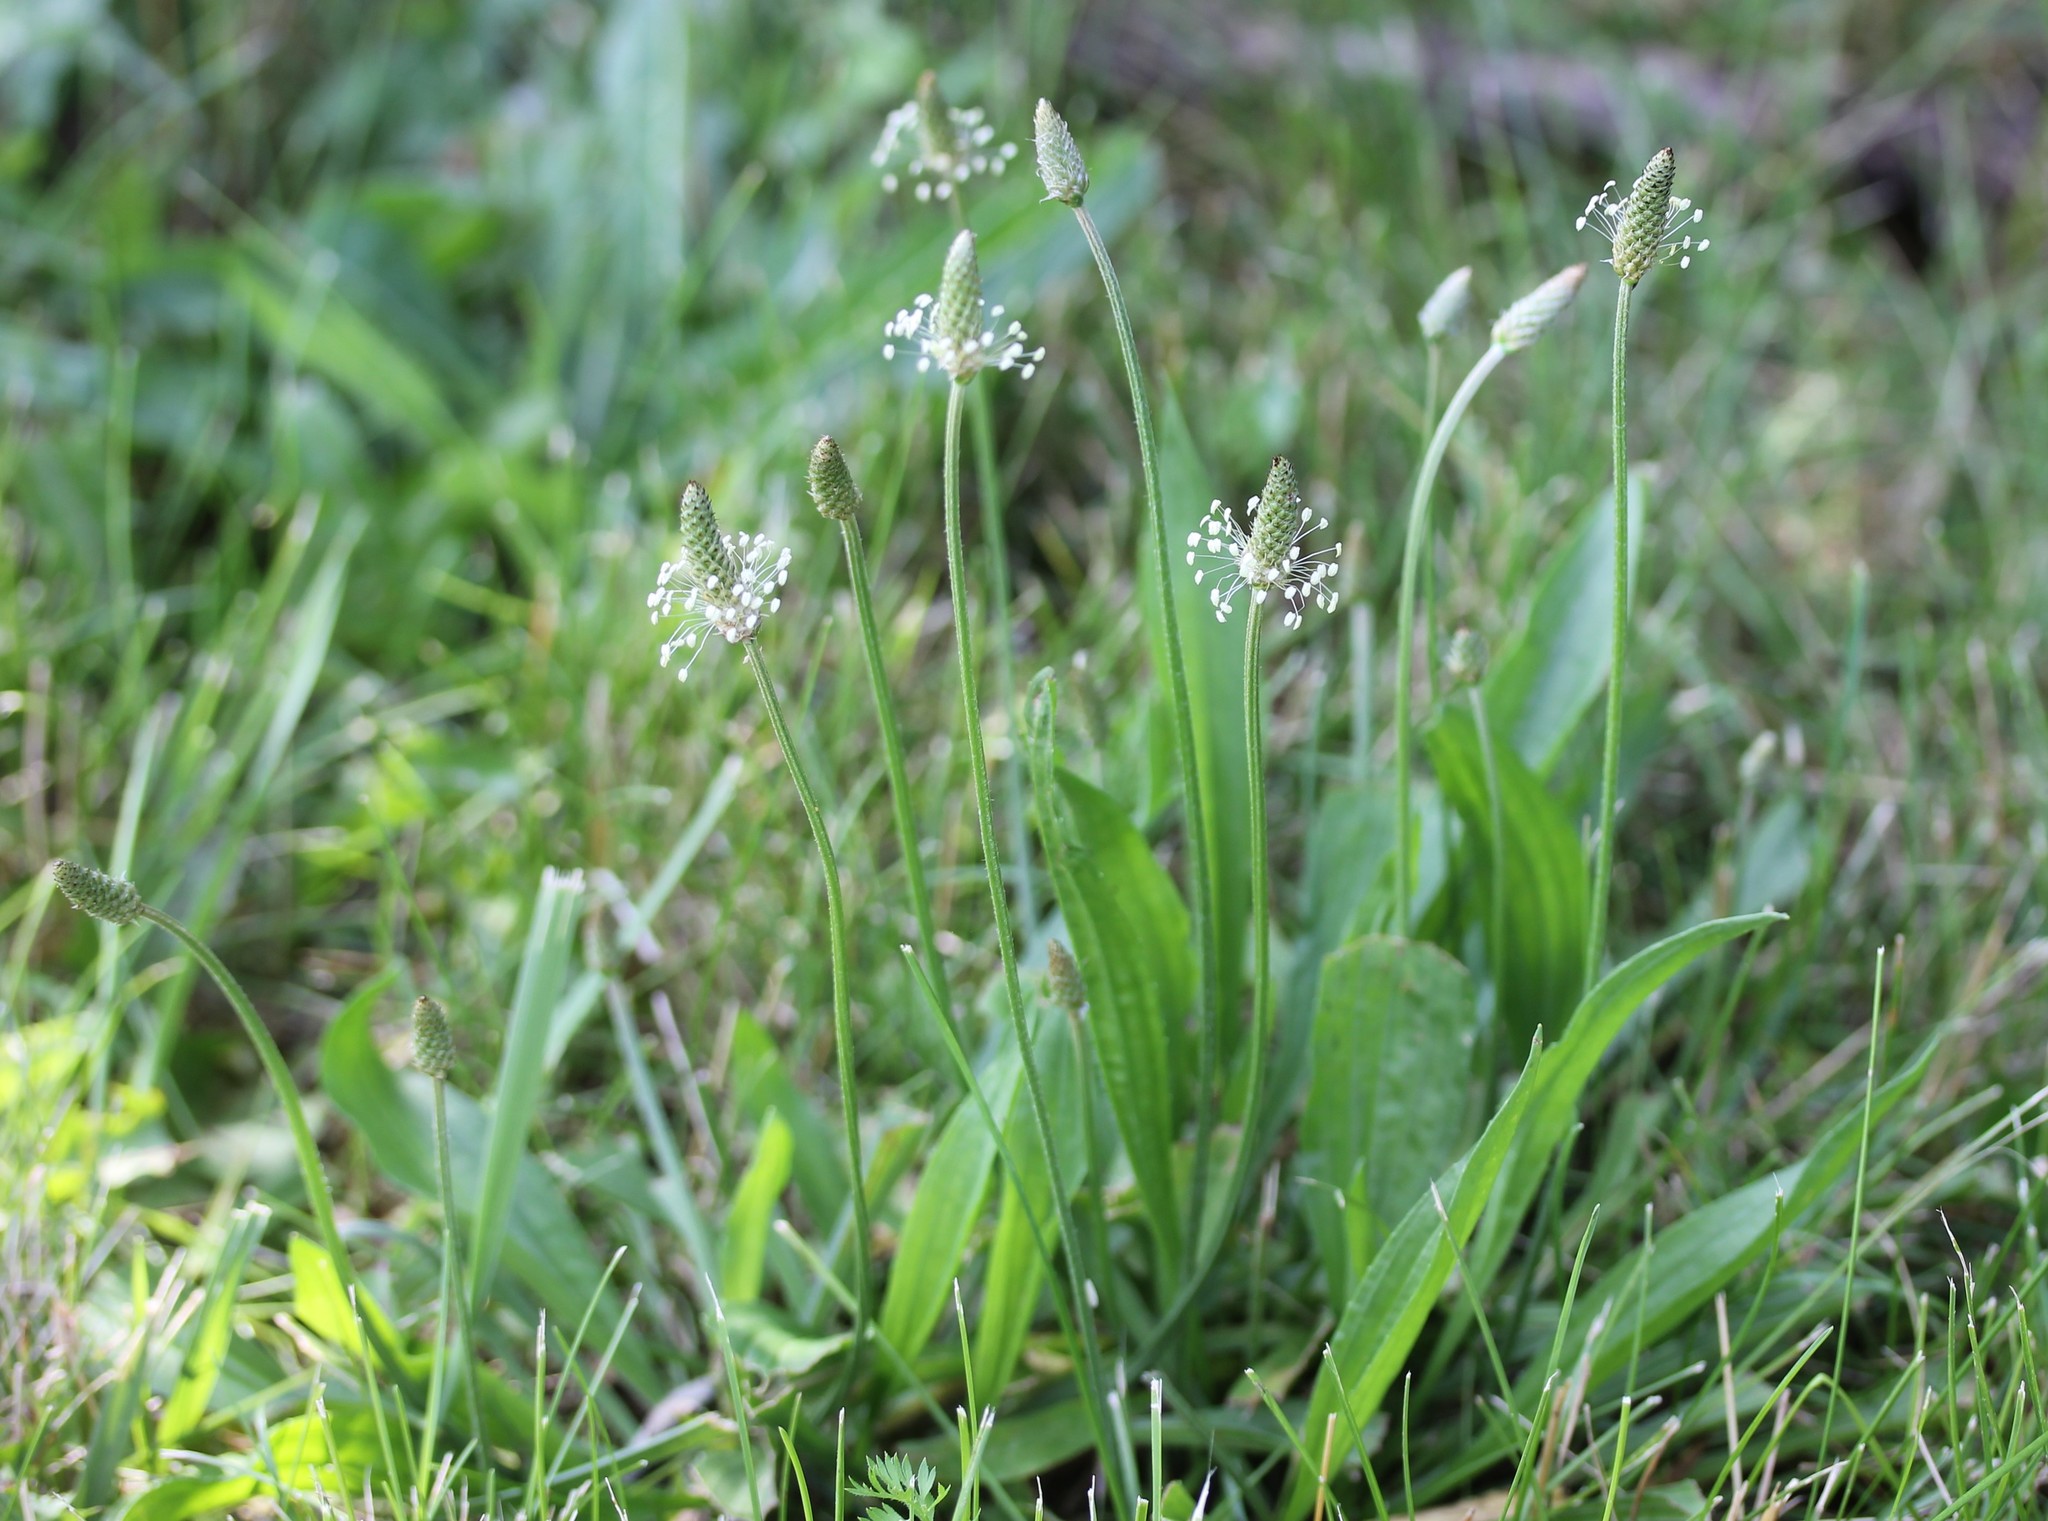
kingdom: Plantae
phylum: Tracheophyta
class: Magnoliopsida
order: Lamiales
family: Plantaginaceae
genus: Plantago
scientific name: Plantago lanceolata
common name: Ribwort plantain
